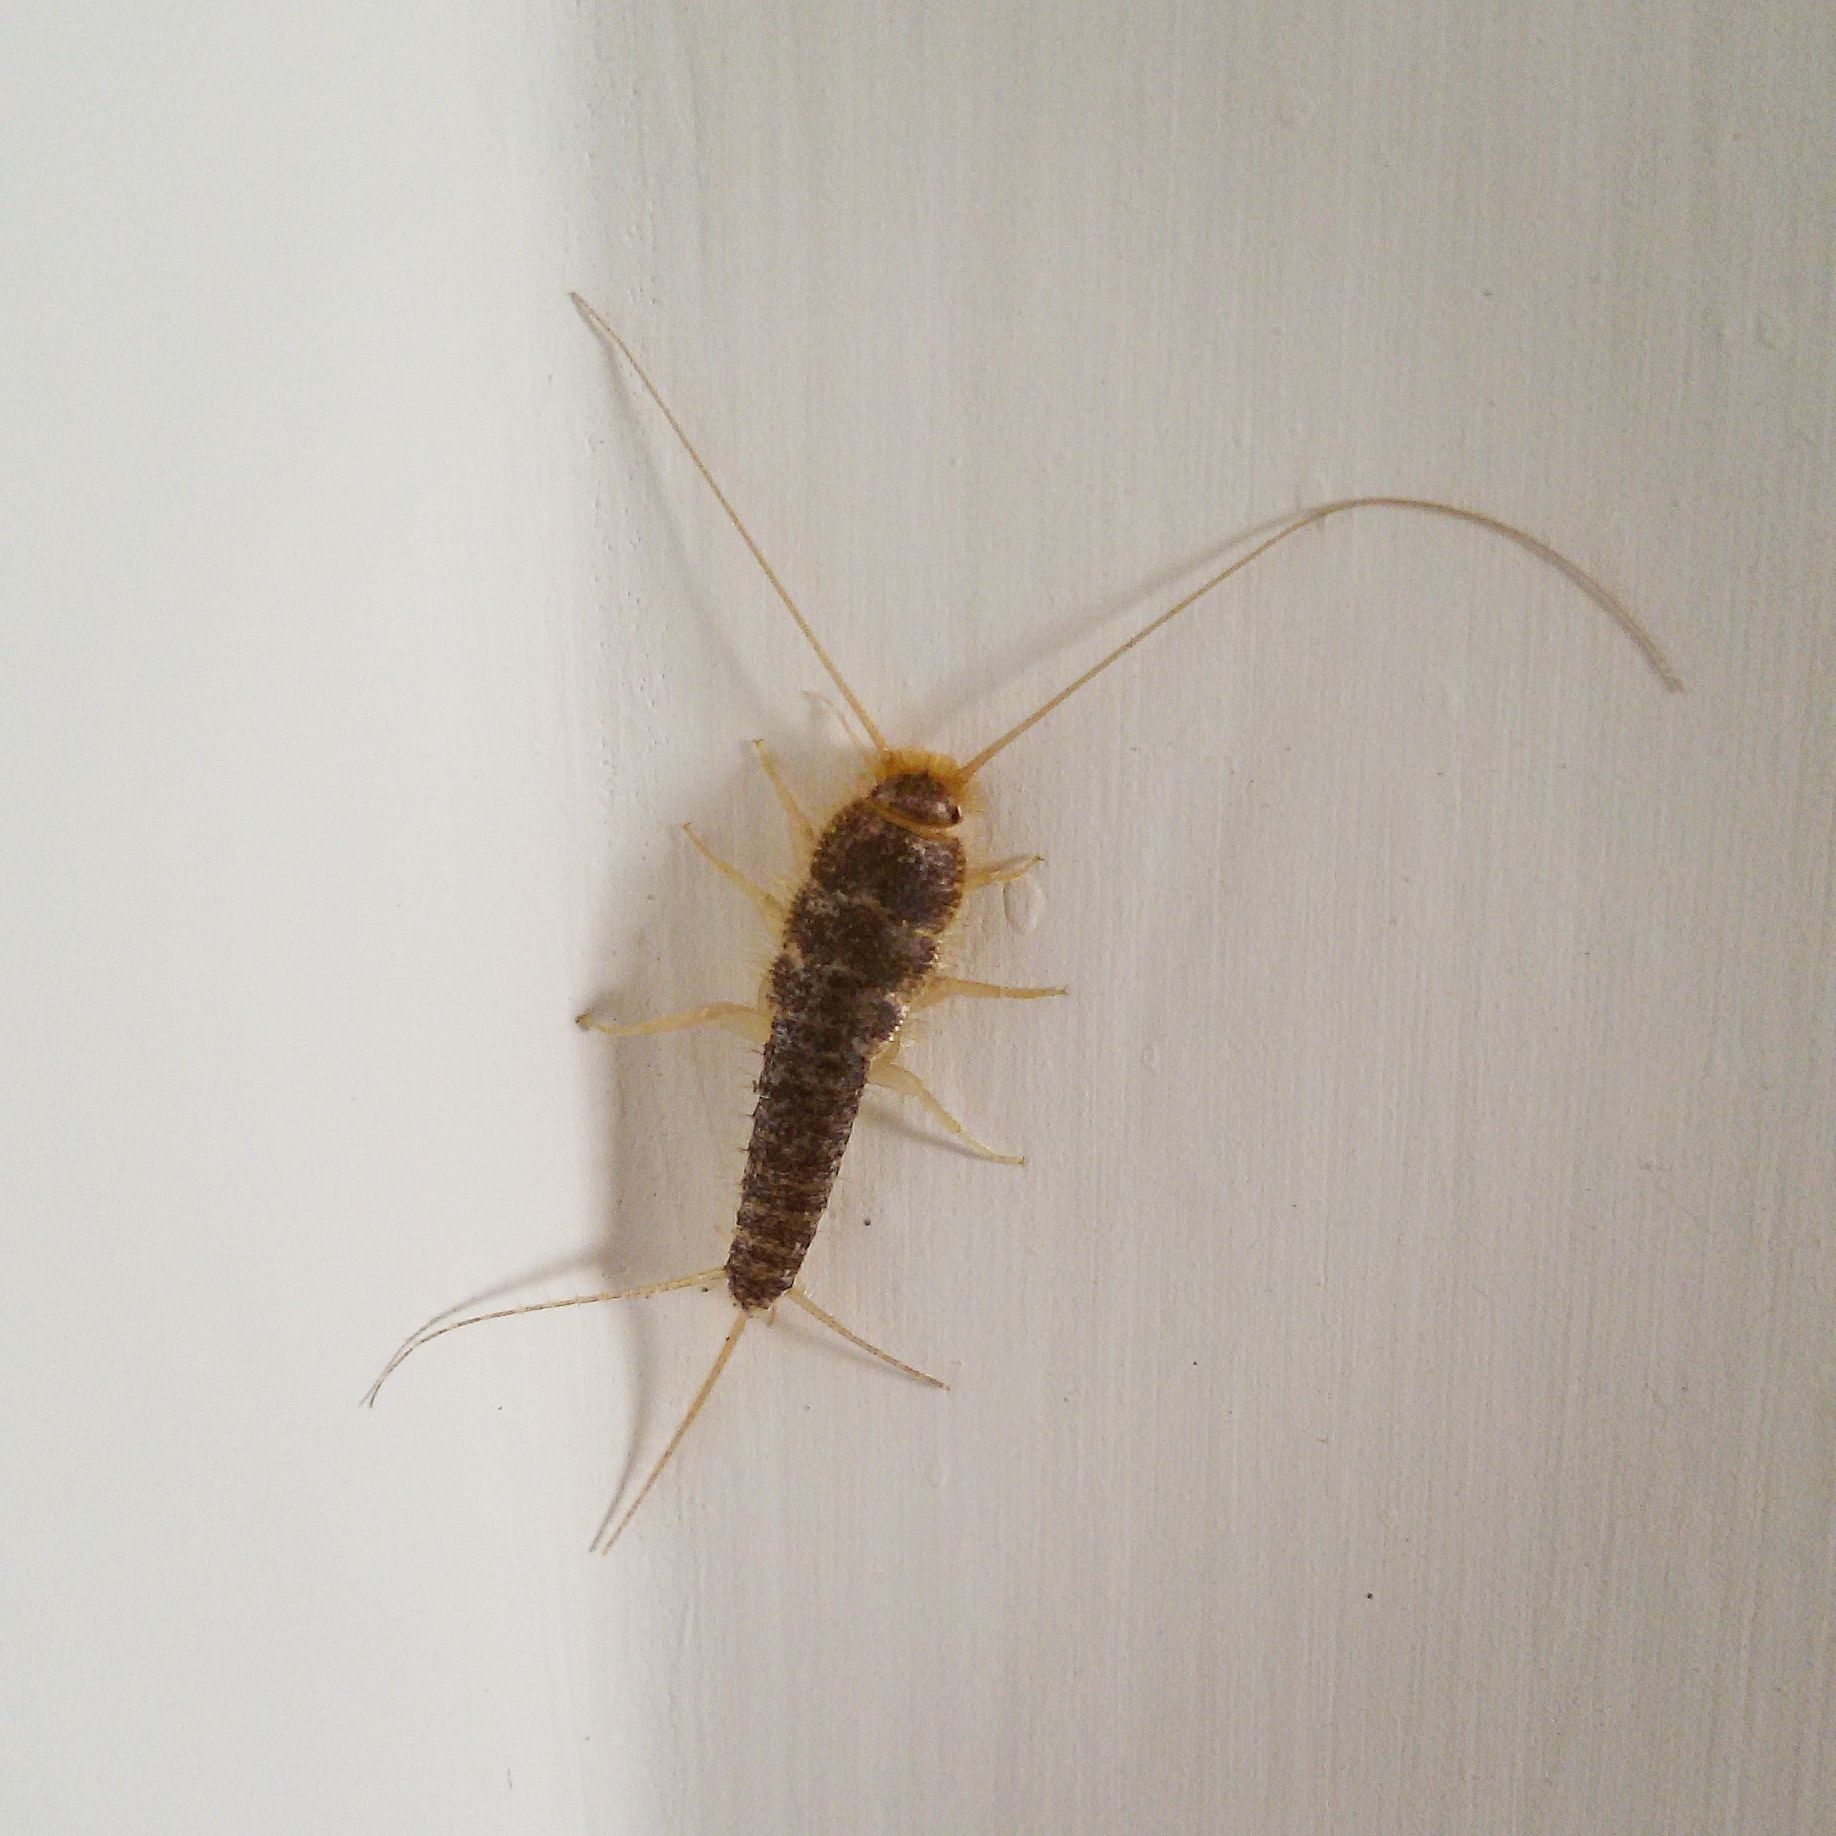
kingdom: Animalia
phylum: Arthropoda
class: Insecta
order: Zygentoma
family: Lepismatidae
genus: Ctenolepisma
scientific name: Ctenolepisma longicaudatum
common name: Silverfish
